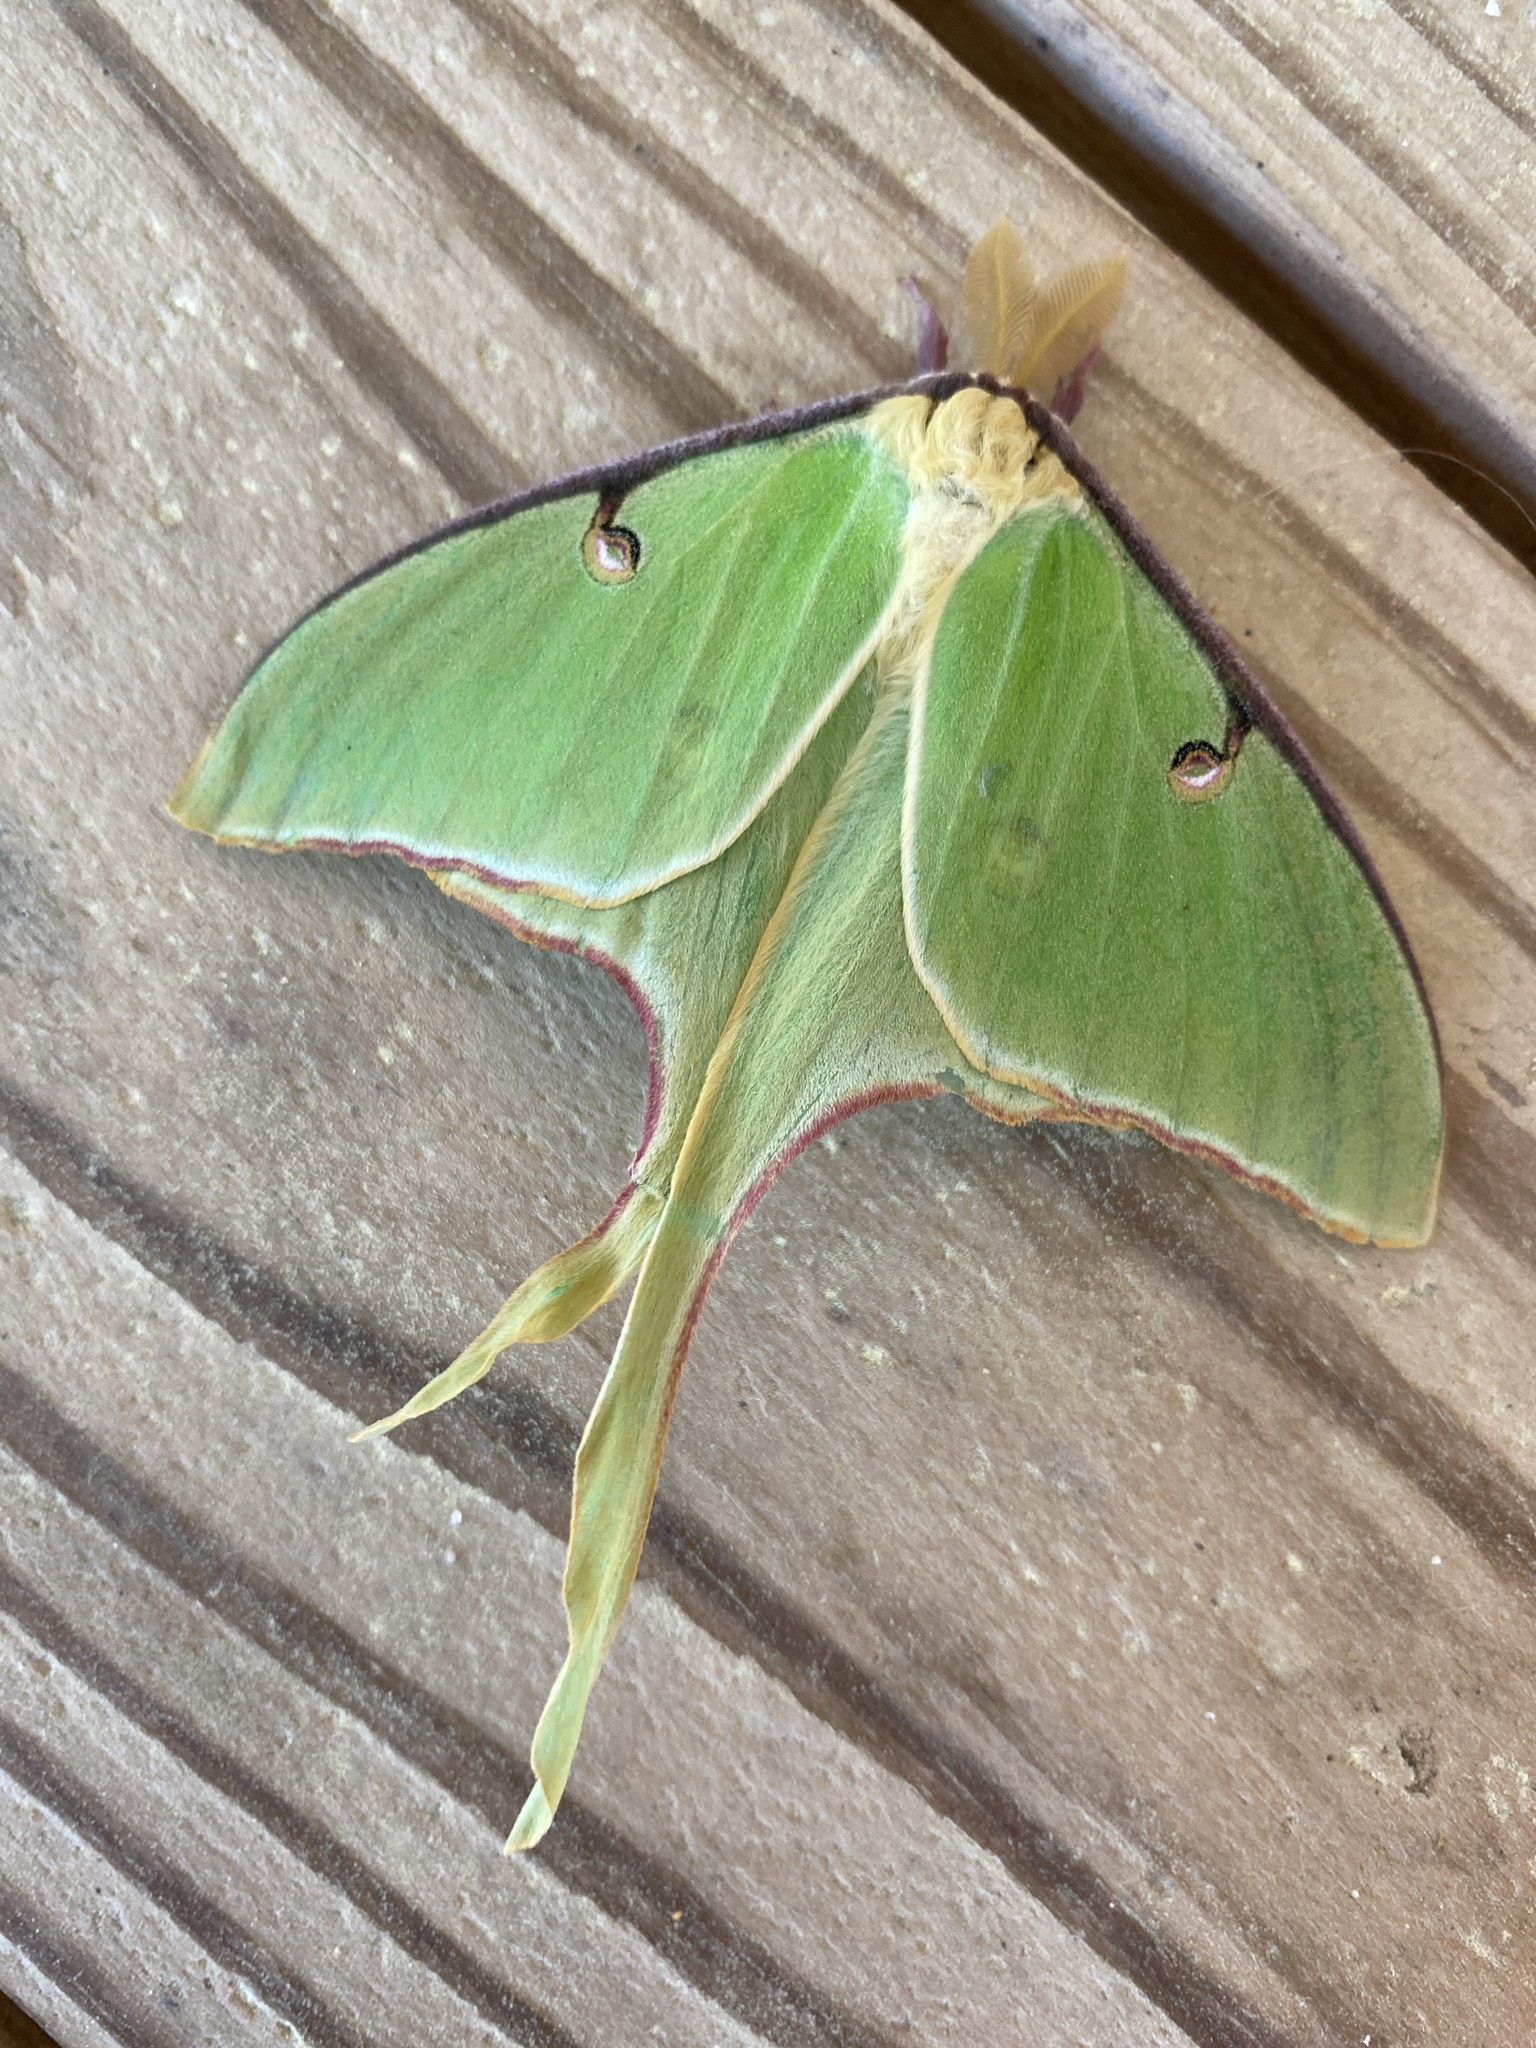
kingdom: Animalia
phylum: Arthropoda
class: Insecta
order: Lepidoptera
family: Saturniidae
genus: Actias
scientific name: Actias luna
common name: Luna moth
